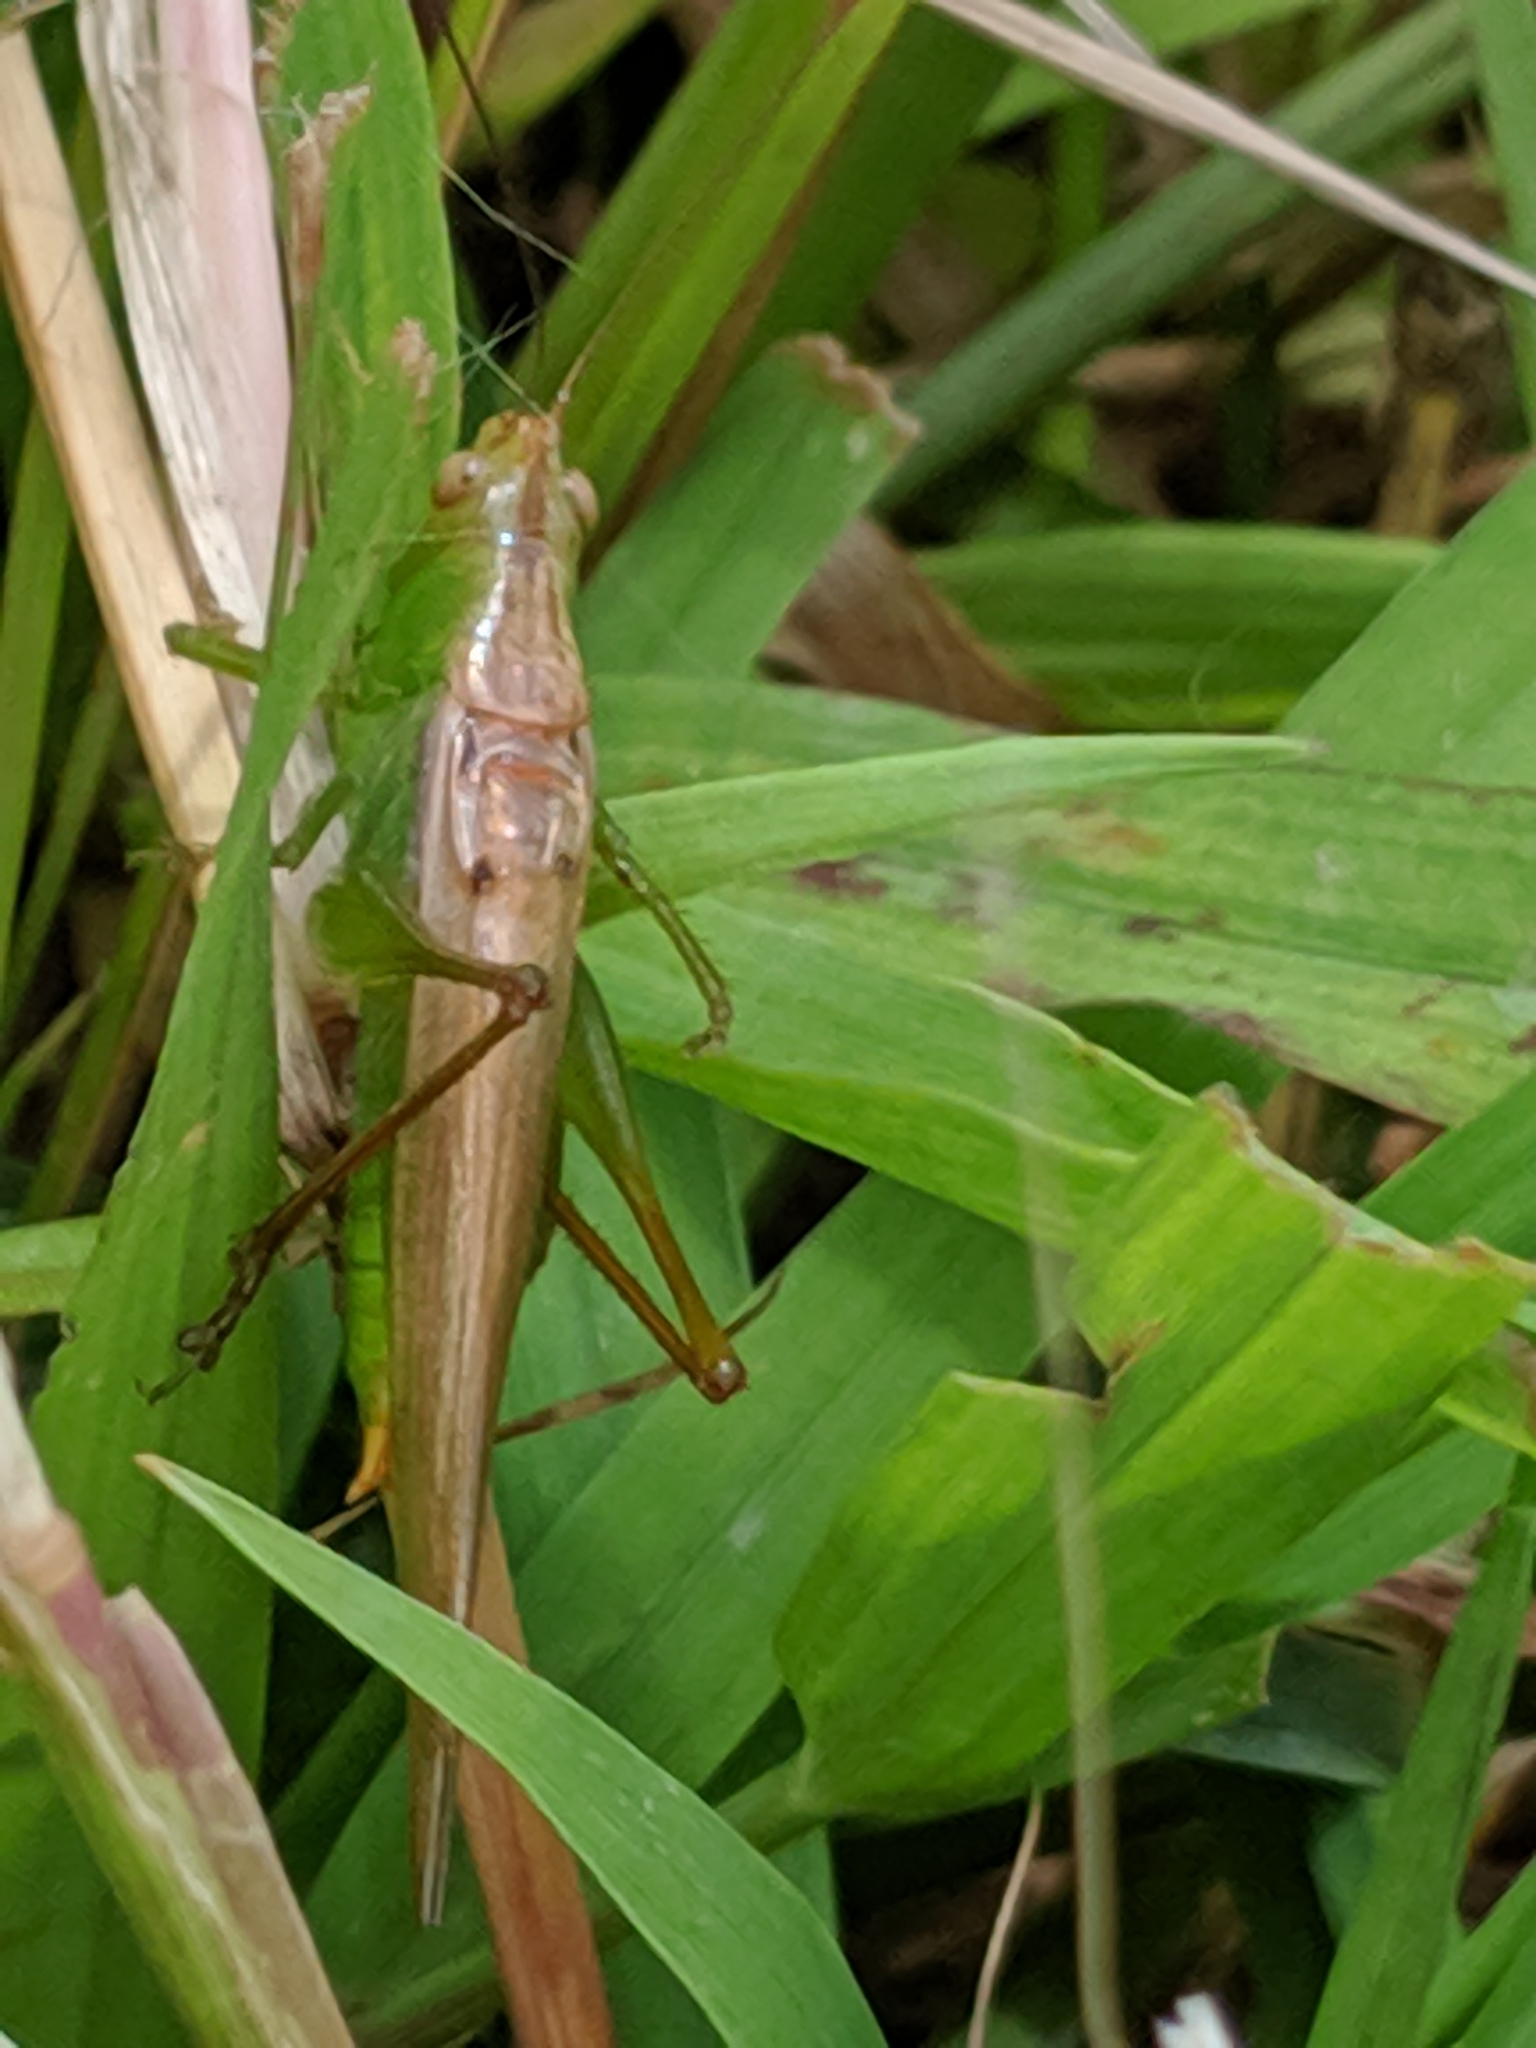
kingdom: Animalia
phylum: Arthropoda
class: Insecta
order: Orthoptera
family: Tettigoniidae
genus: Conocephalus
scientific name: Conocephalus fasciatus
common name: Slender meadow katydid
